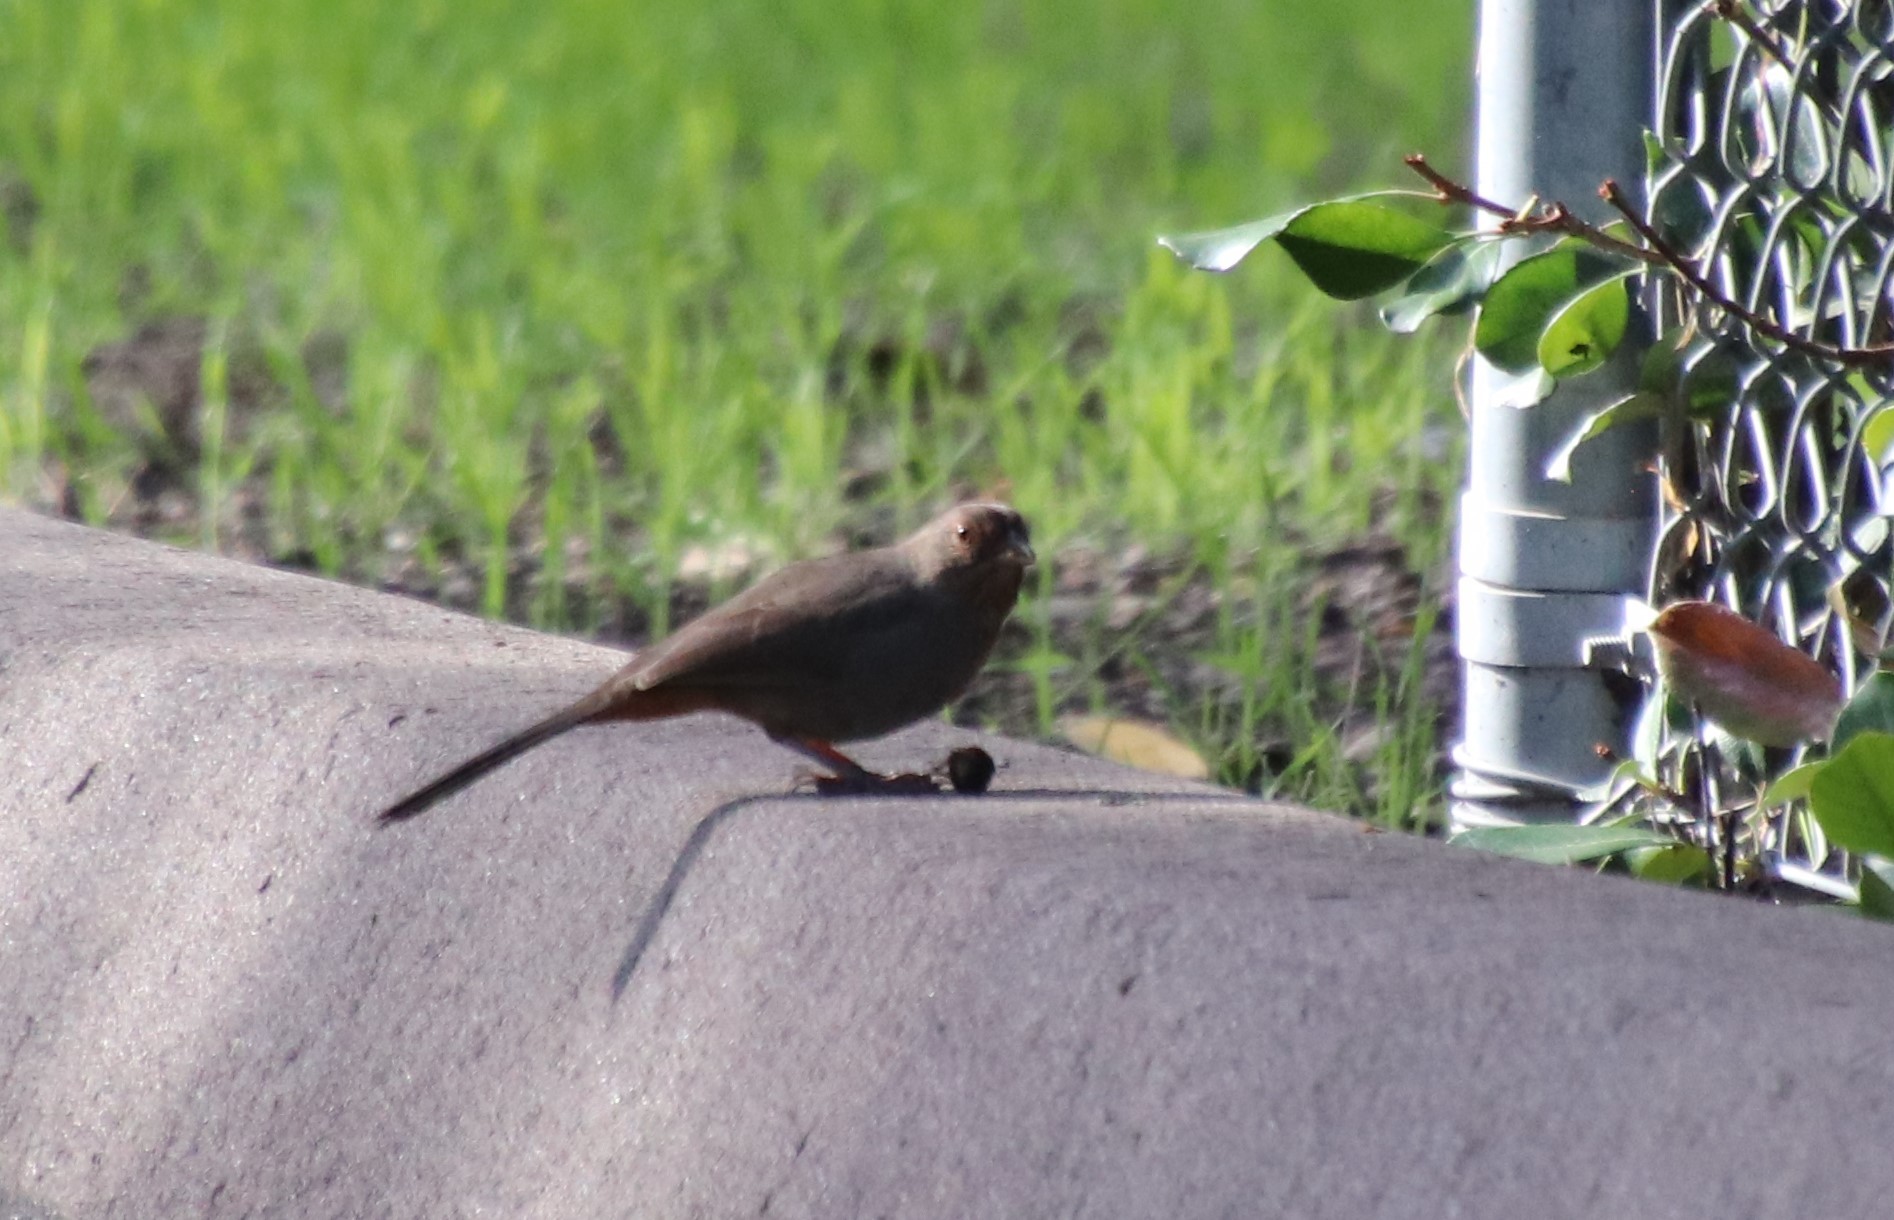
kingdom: Animalia
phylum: Chordata
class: Aves
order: Passeriformes
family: Passerellidae
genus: Melozone
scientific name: Melozone crissalis
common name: California towhee
